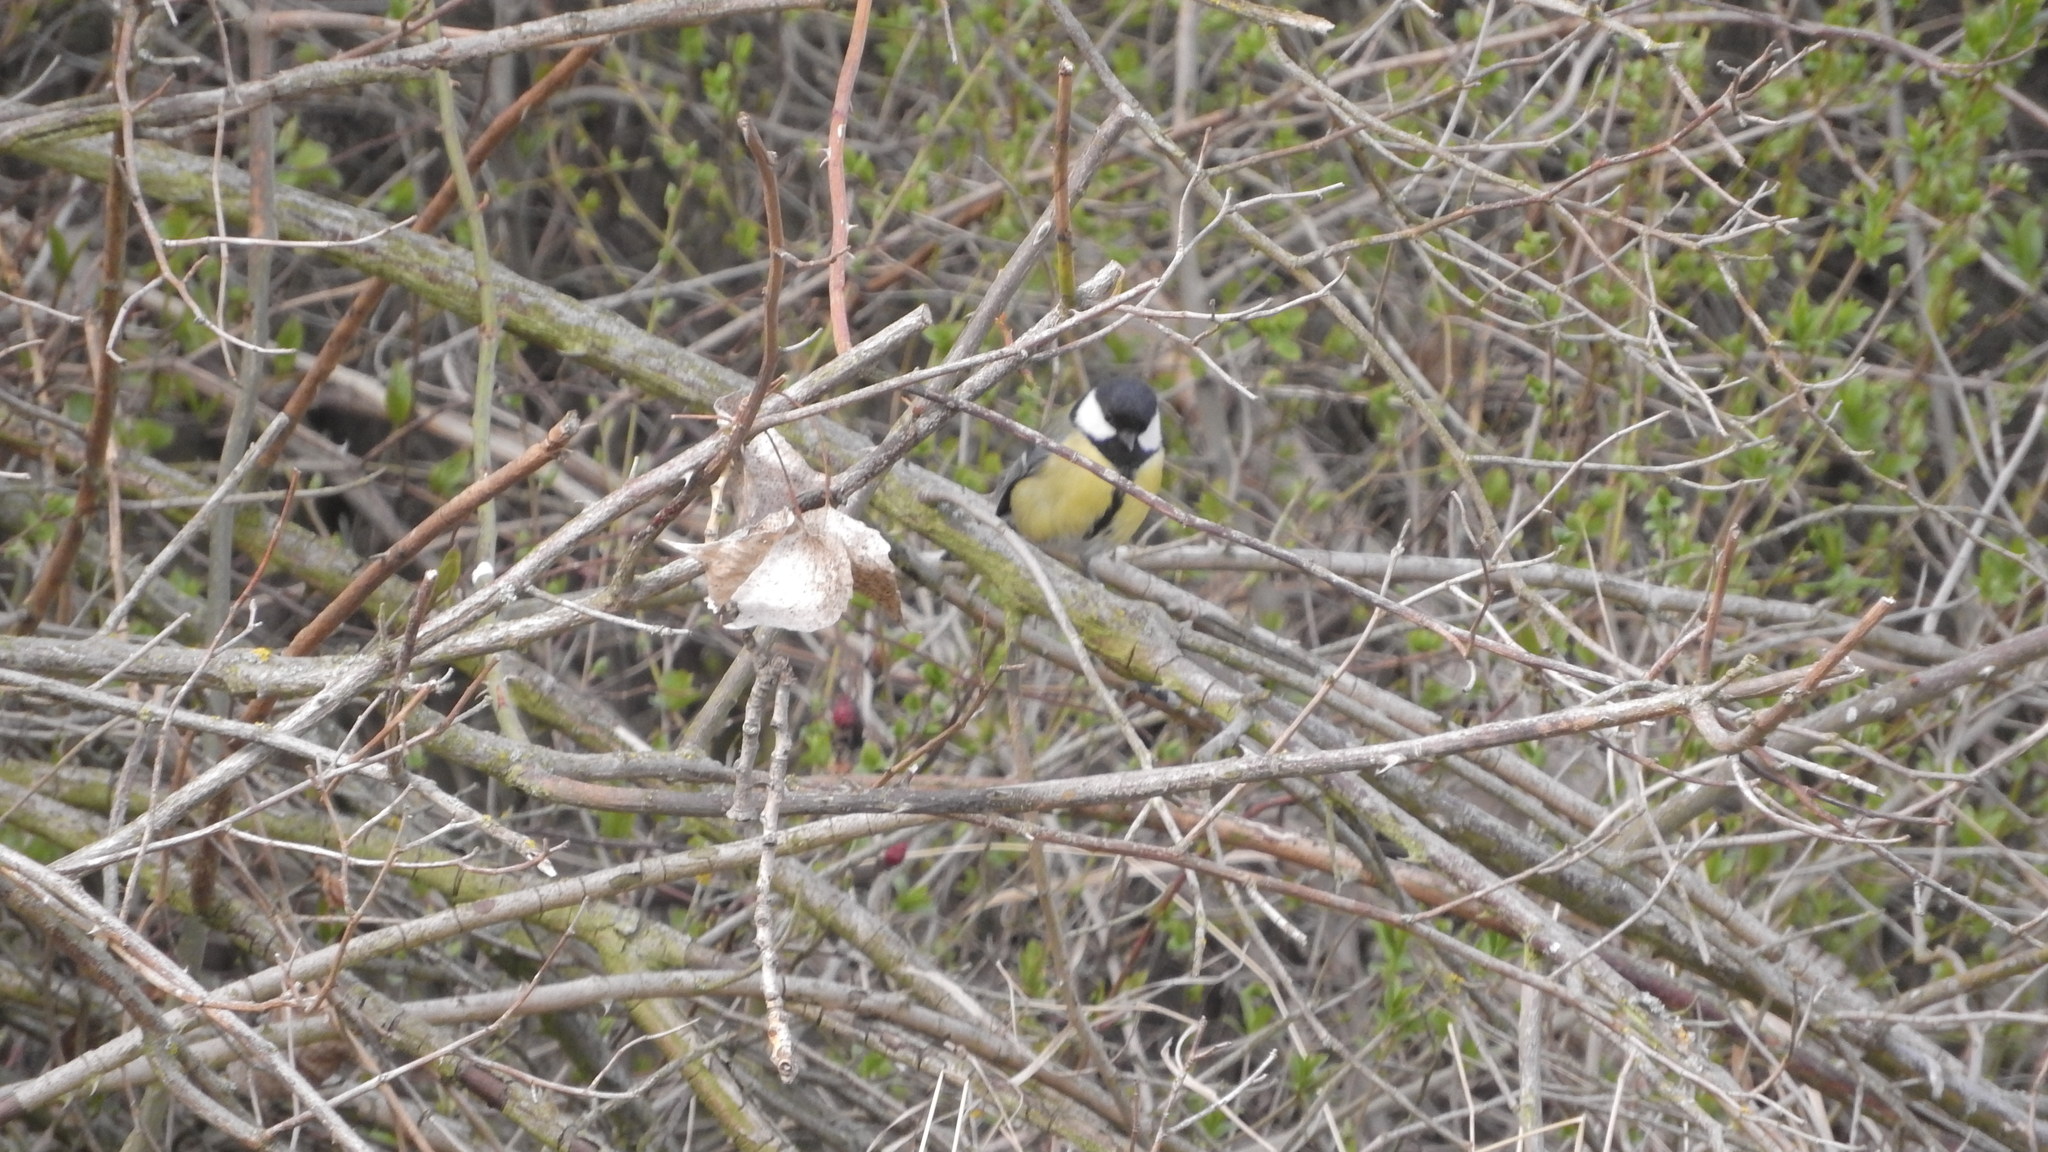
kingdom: Animalia
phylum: Chordata
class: Aves
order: Passeriformes
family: Paridae
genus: Parus
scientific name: Parus major
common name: Great tit
